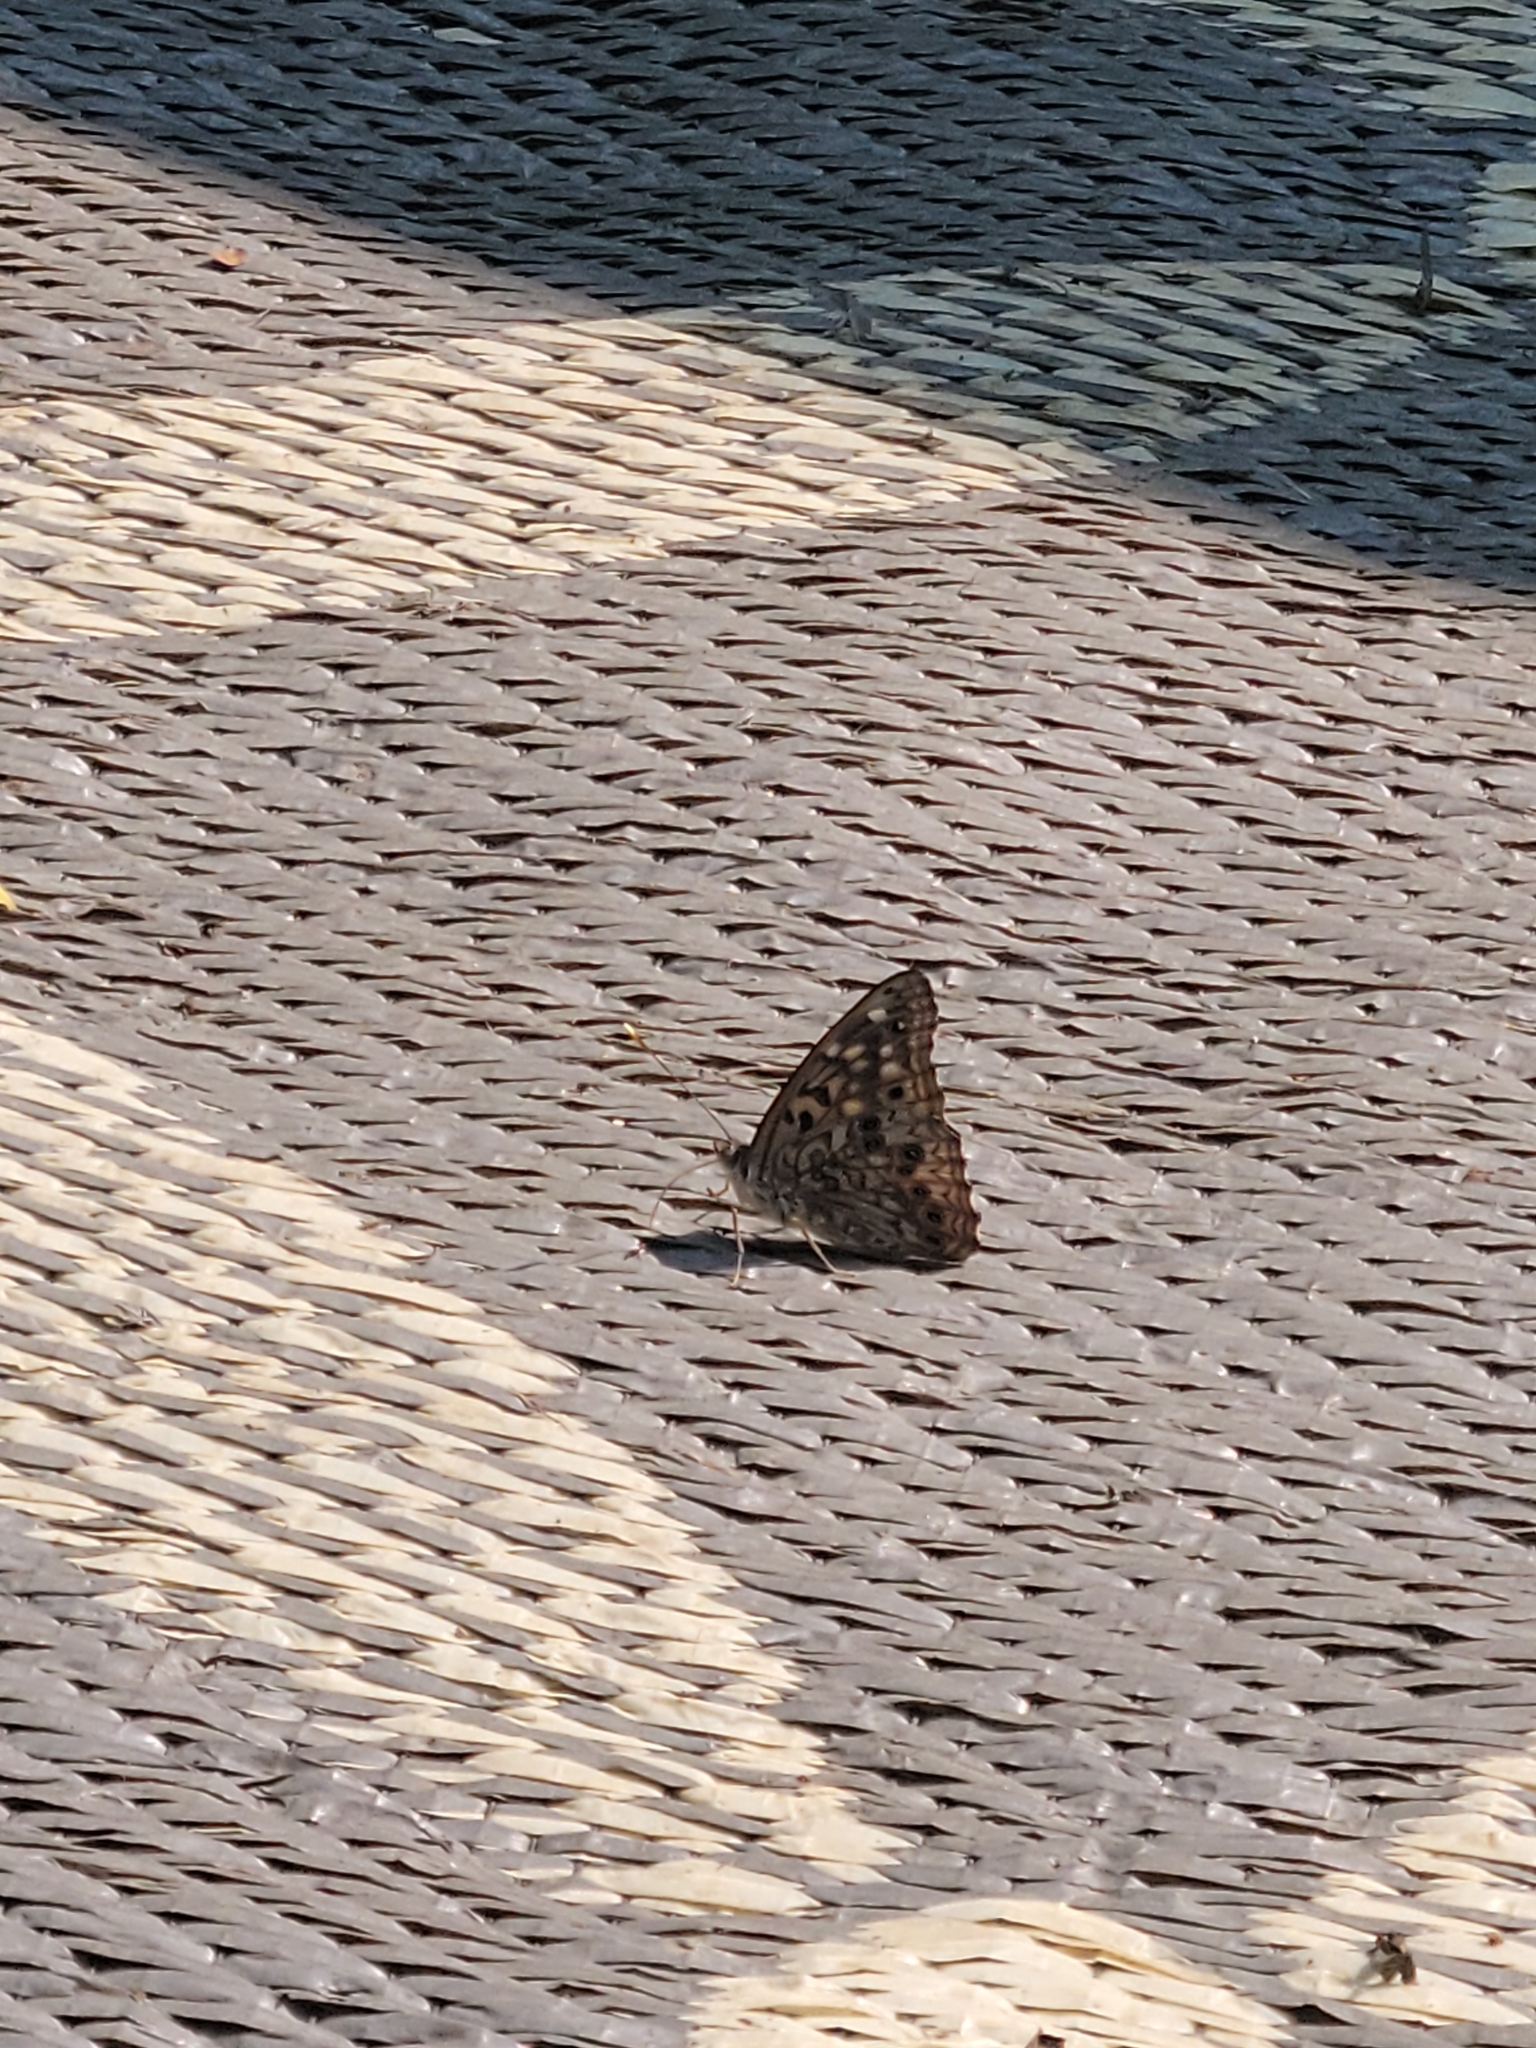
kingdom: Animalia
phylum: Arthropoda
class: Insecta
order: Lepidoptera
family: Nymphalidae
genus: Asterocampa
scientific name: Asterocampa celtis
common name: Hackberry emperor
